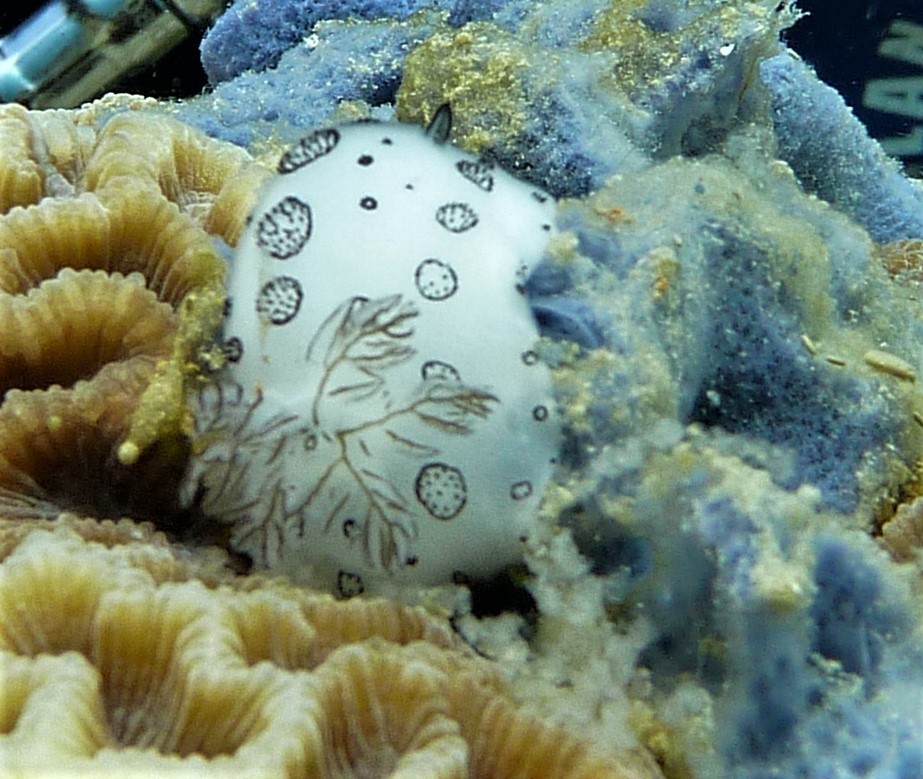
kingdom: Animalia
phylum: Mollusca
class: Gastropoda
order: Nudibranchia
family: Discodorididae
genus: Jorunna
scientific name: Jorunna funebris
